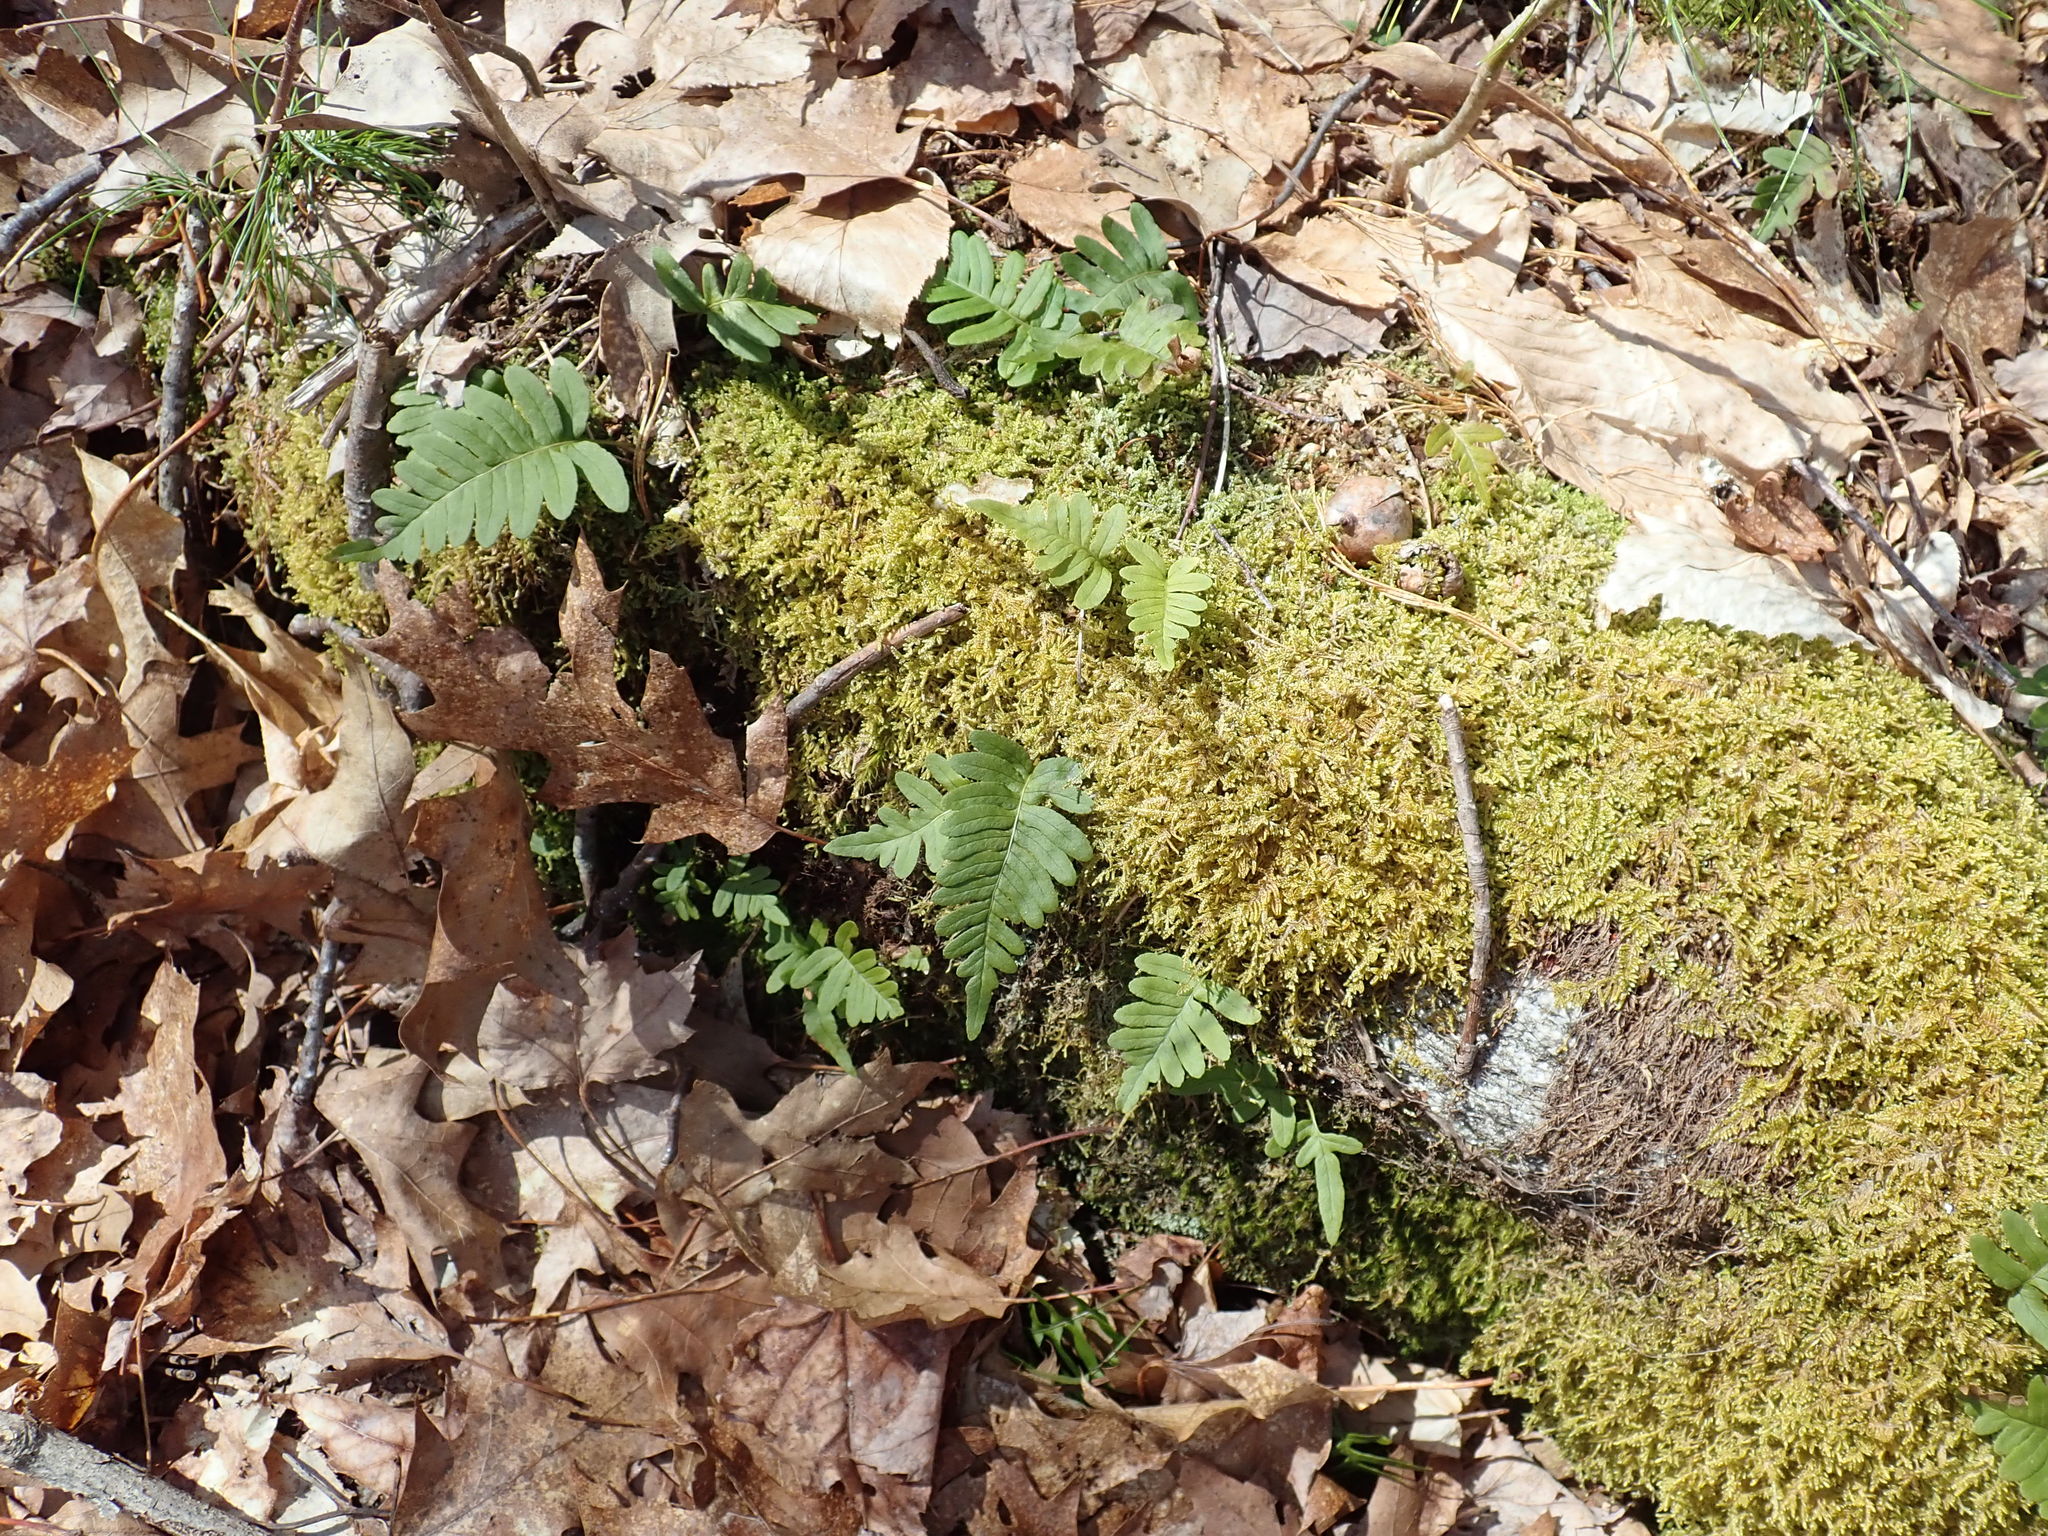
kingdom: Plantae
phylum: Tracheophyta
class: Polypodiopsida
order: Polypodiales
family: Polypodiaceae
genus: Polypodium
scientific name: Polypodium
